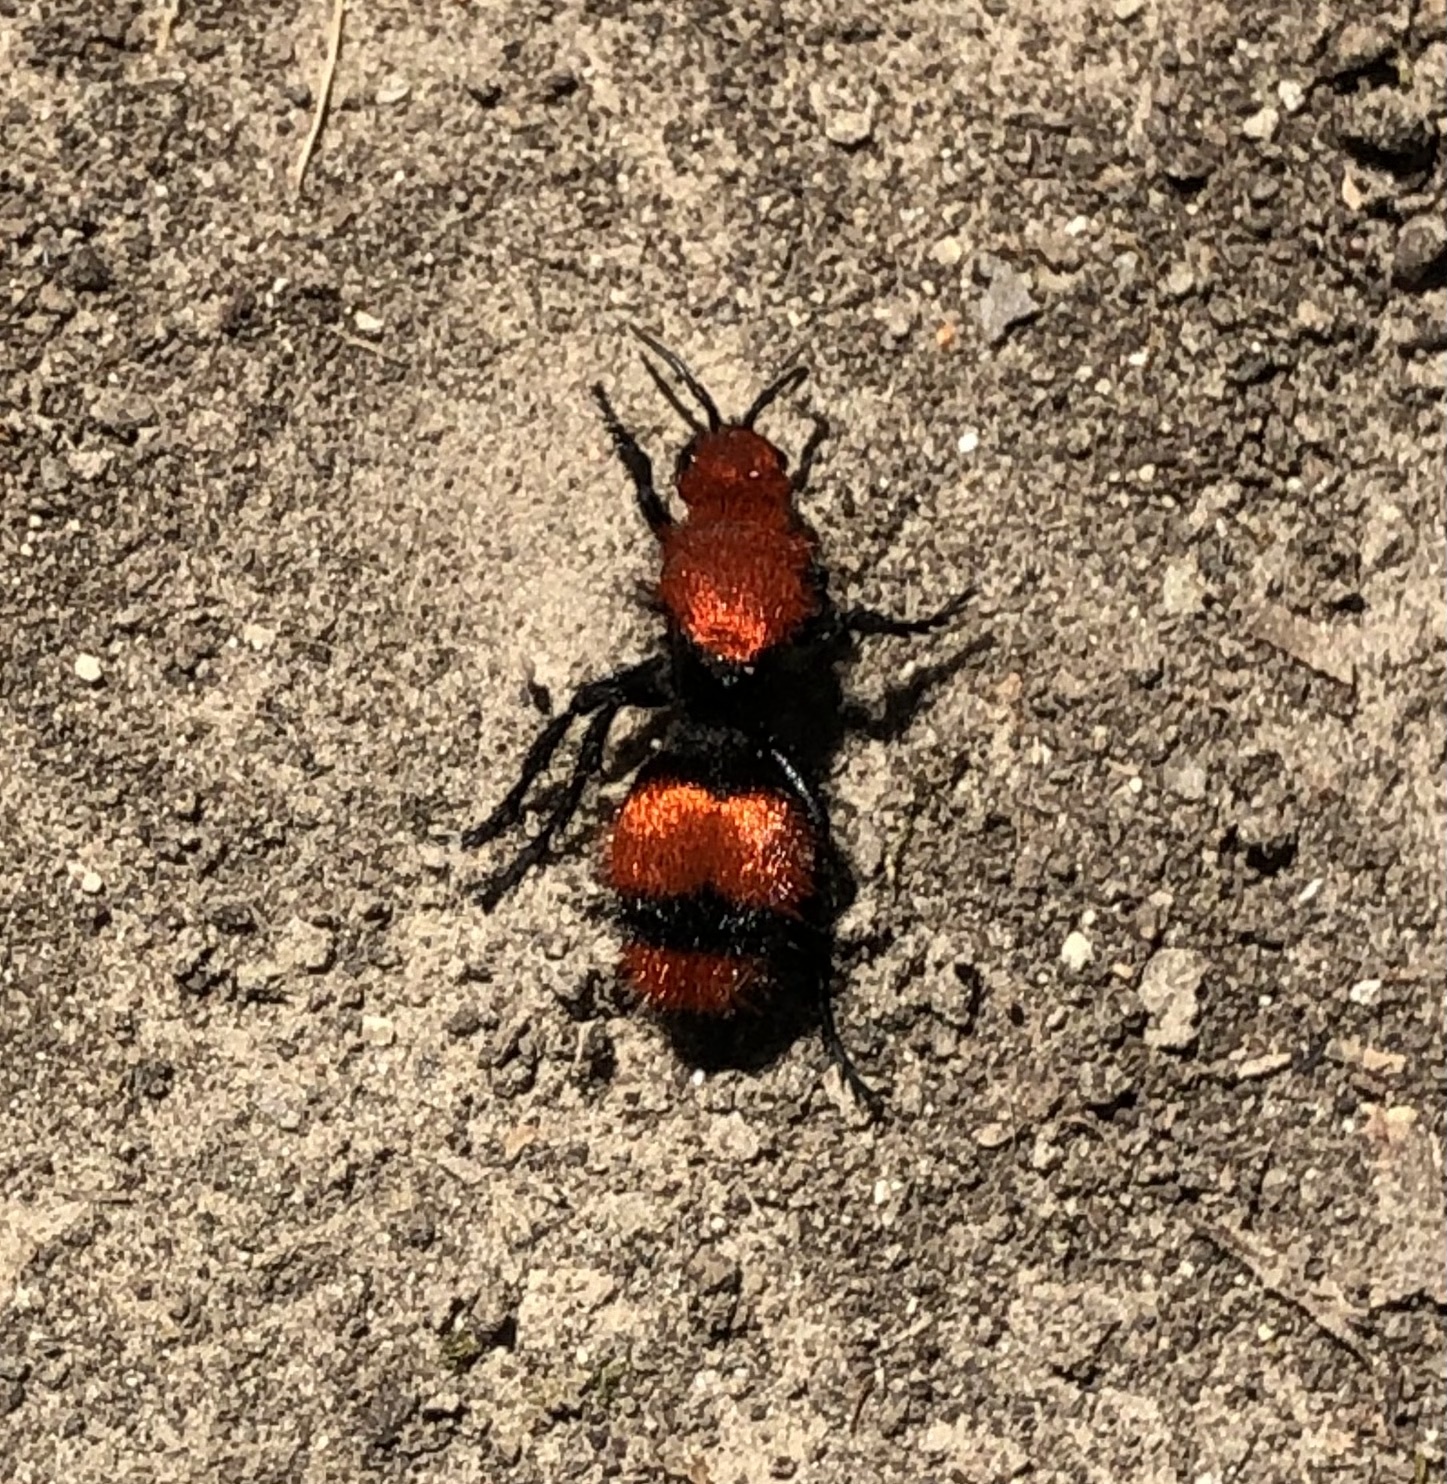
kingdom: Animalia
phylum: Arthropoda
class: Insecta
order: Hymenoptera
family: Mutillidae
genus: Dasymutilla
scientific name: Dasymutilla occidentalis
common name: Common eastern velvet ant
